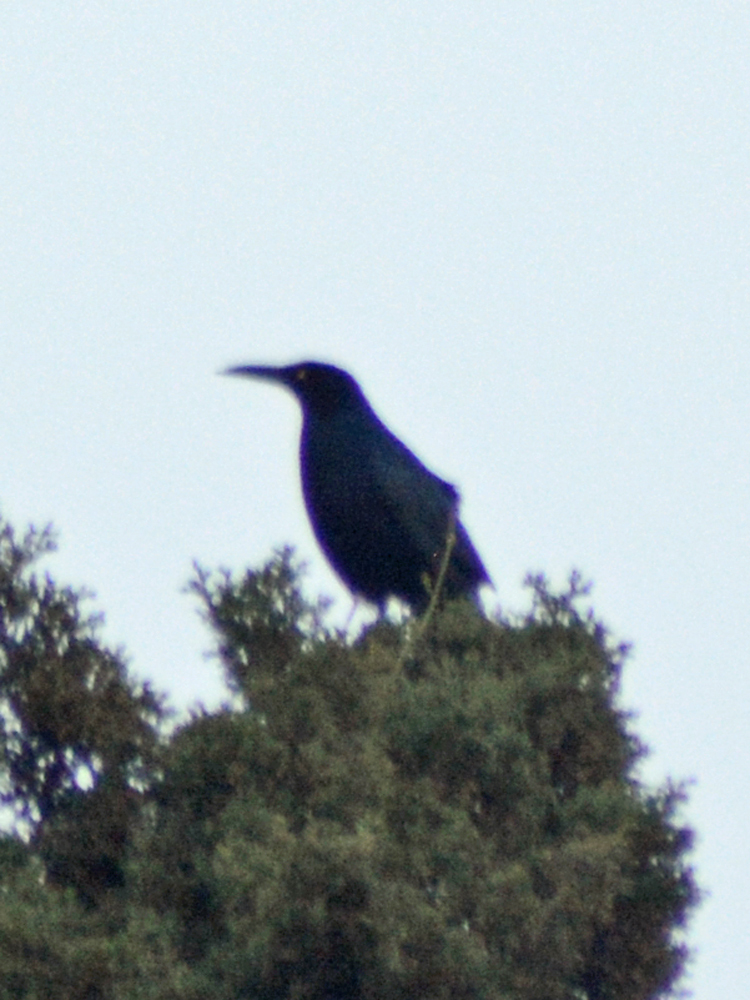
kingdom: Animalia
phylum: Chordata
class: Aves
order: Passeriformes
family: Icteridae
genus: Quiscalus
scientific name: Quiscalus mexicanus
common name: Great-tailed grackle
